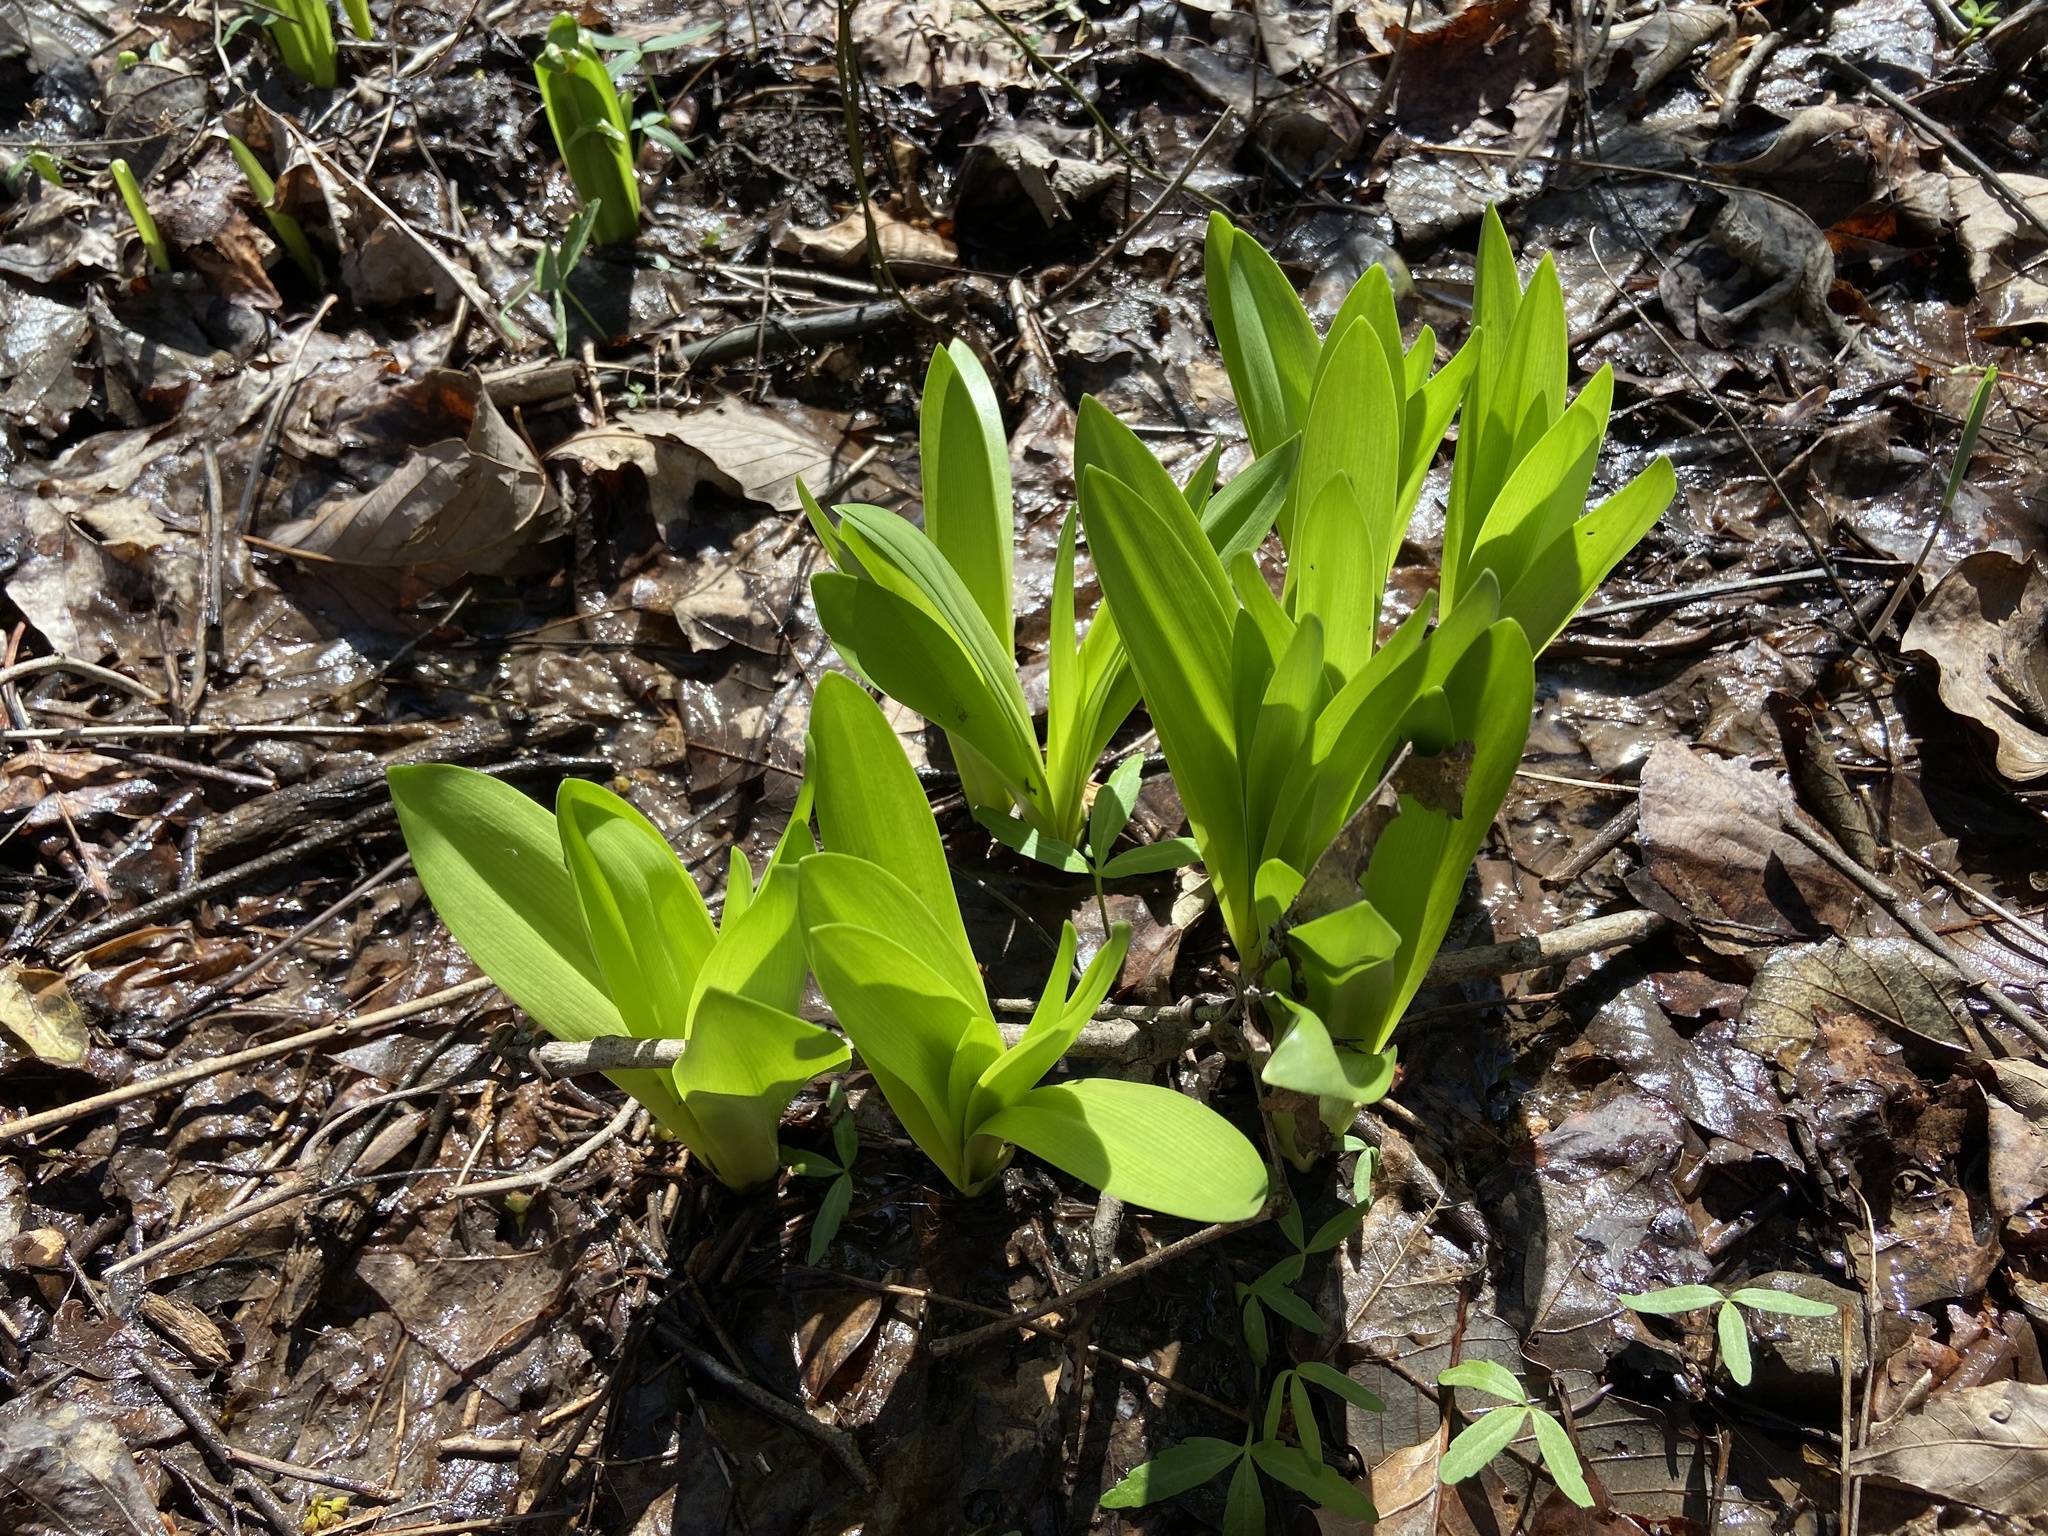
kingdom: Plantae
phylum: Tracheophyta
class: Liliopsida
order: Asparagales
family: Amaryllidaceae
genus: Hymenocallis
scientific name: Hymenocallis occidentalis
